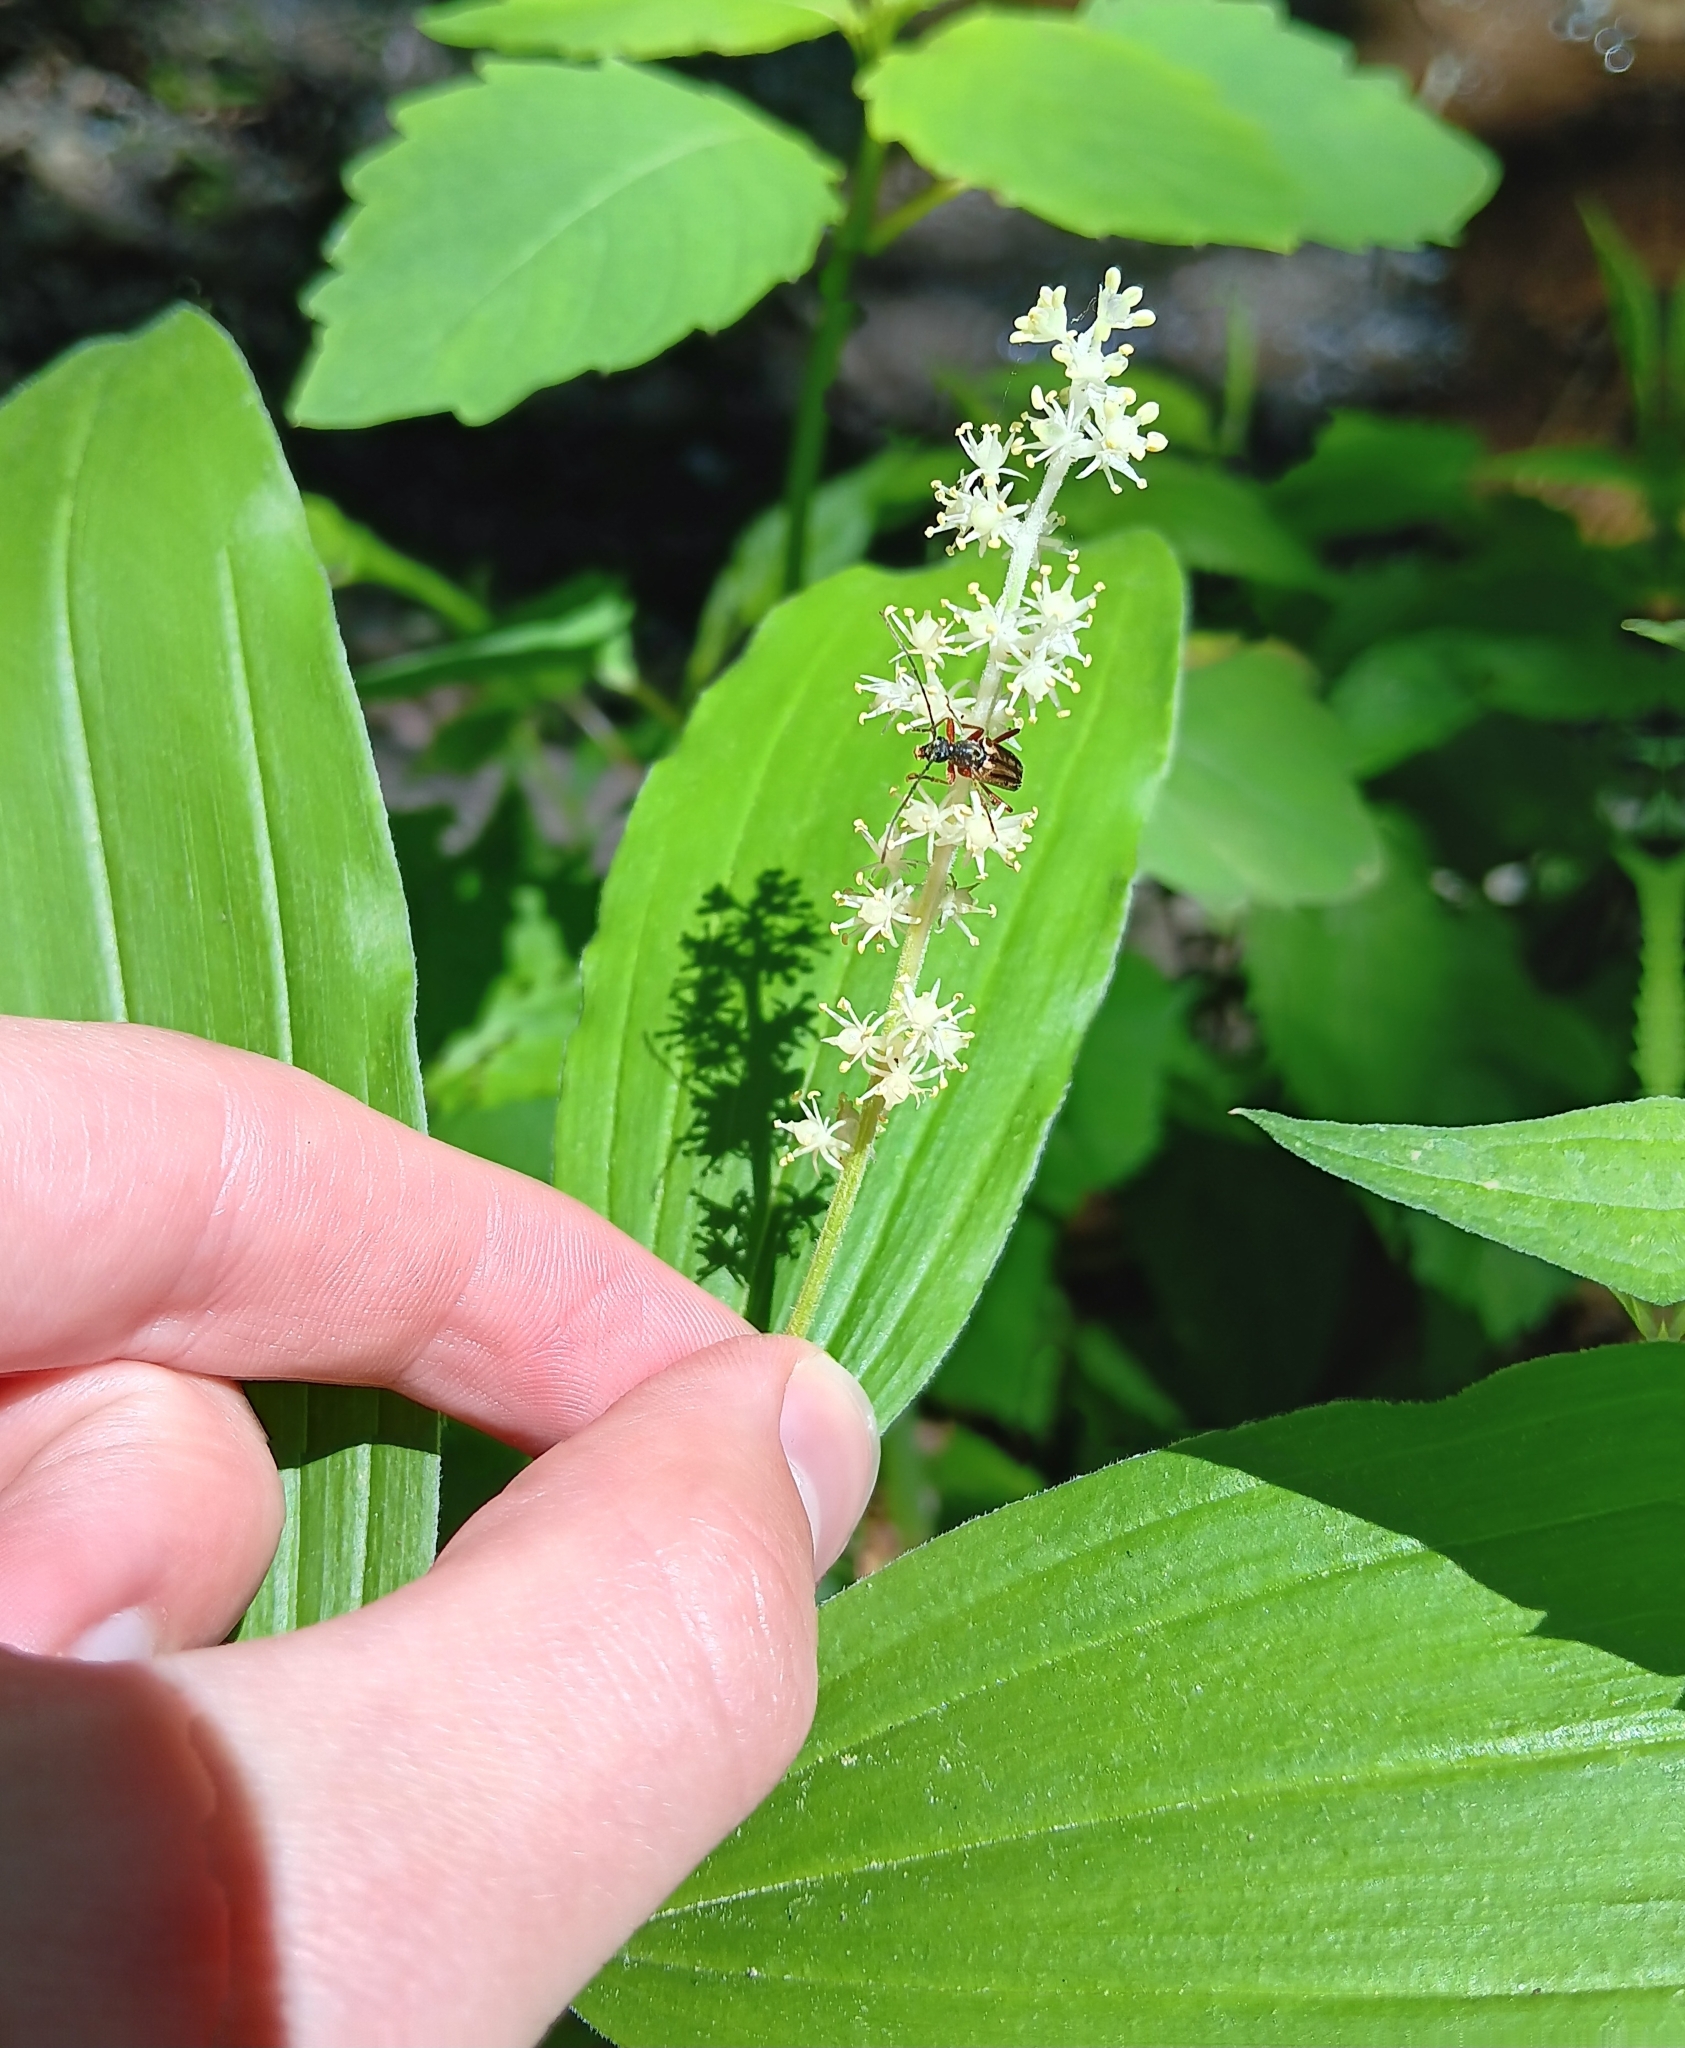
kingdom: Plantae
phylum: Tracheophyta
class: Liliopsida
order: Asparagales
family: Asparagaceae
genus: Maianthemum
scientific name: Maianthemum racemosum
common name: False spikenard
